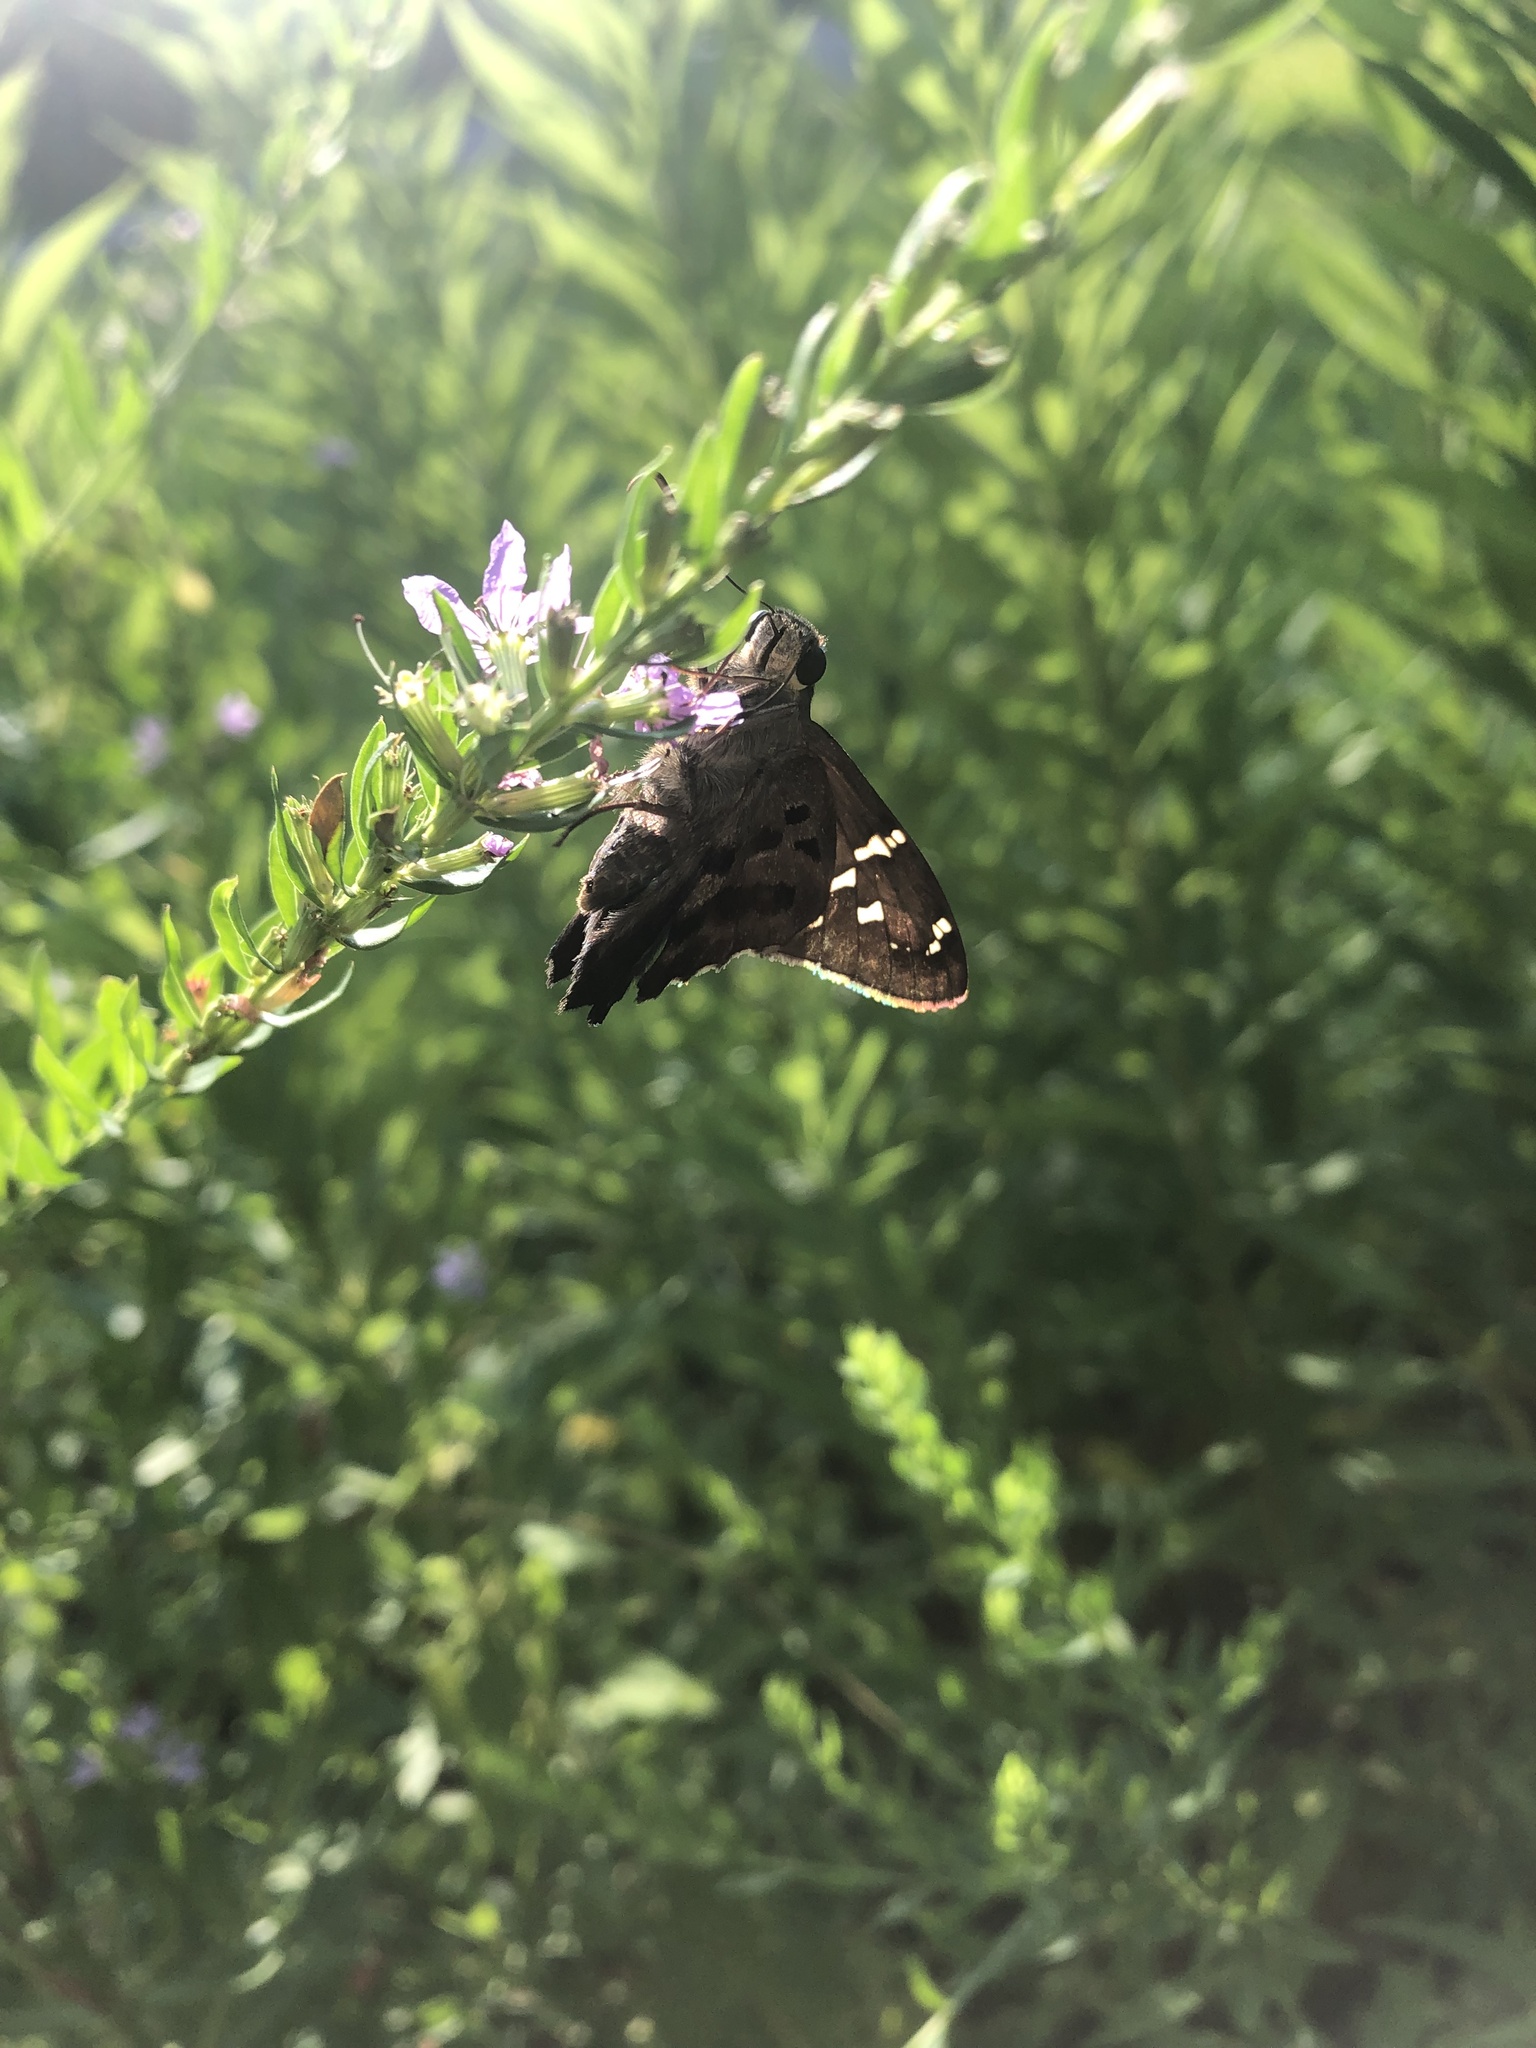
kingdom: Animalia
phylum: Arthropoda
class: Insecta
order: Lepidoptera
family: Hesperiidae
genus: Urbanus
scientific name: Urbanus proteus
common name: Long-tailed skipper
